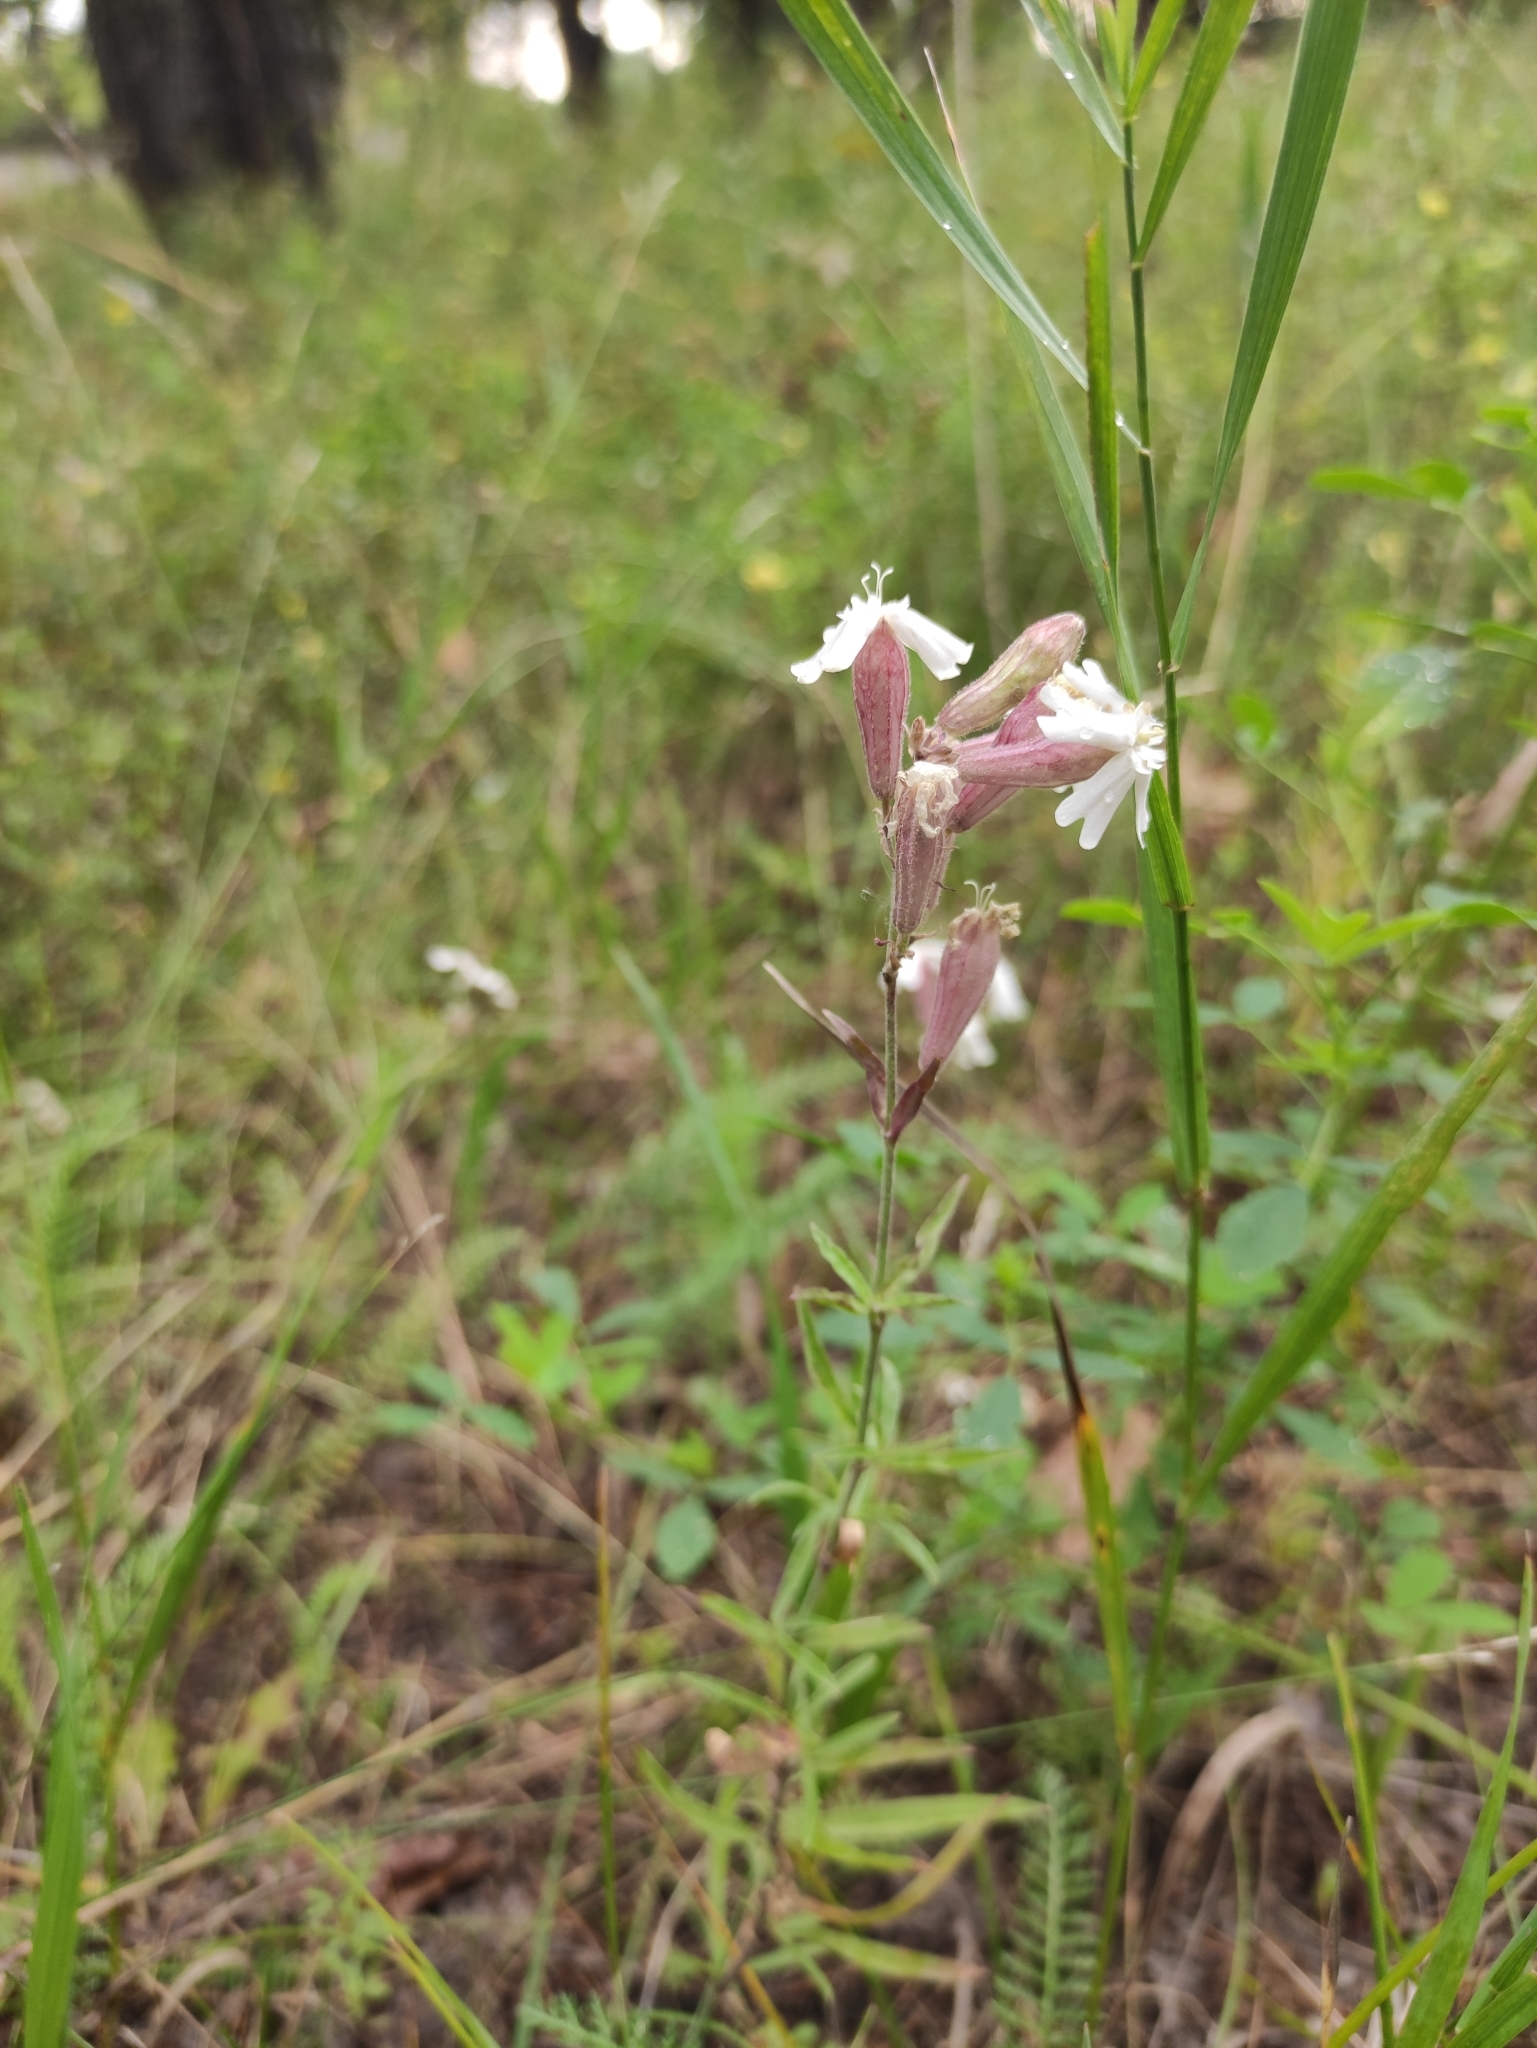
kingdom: Plantae
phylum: Tracheophyta
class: Magnoliopsida
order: Caryophyllales
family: Caryophyllaceae
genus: Silene
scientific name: Silene amoena
